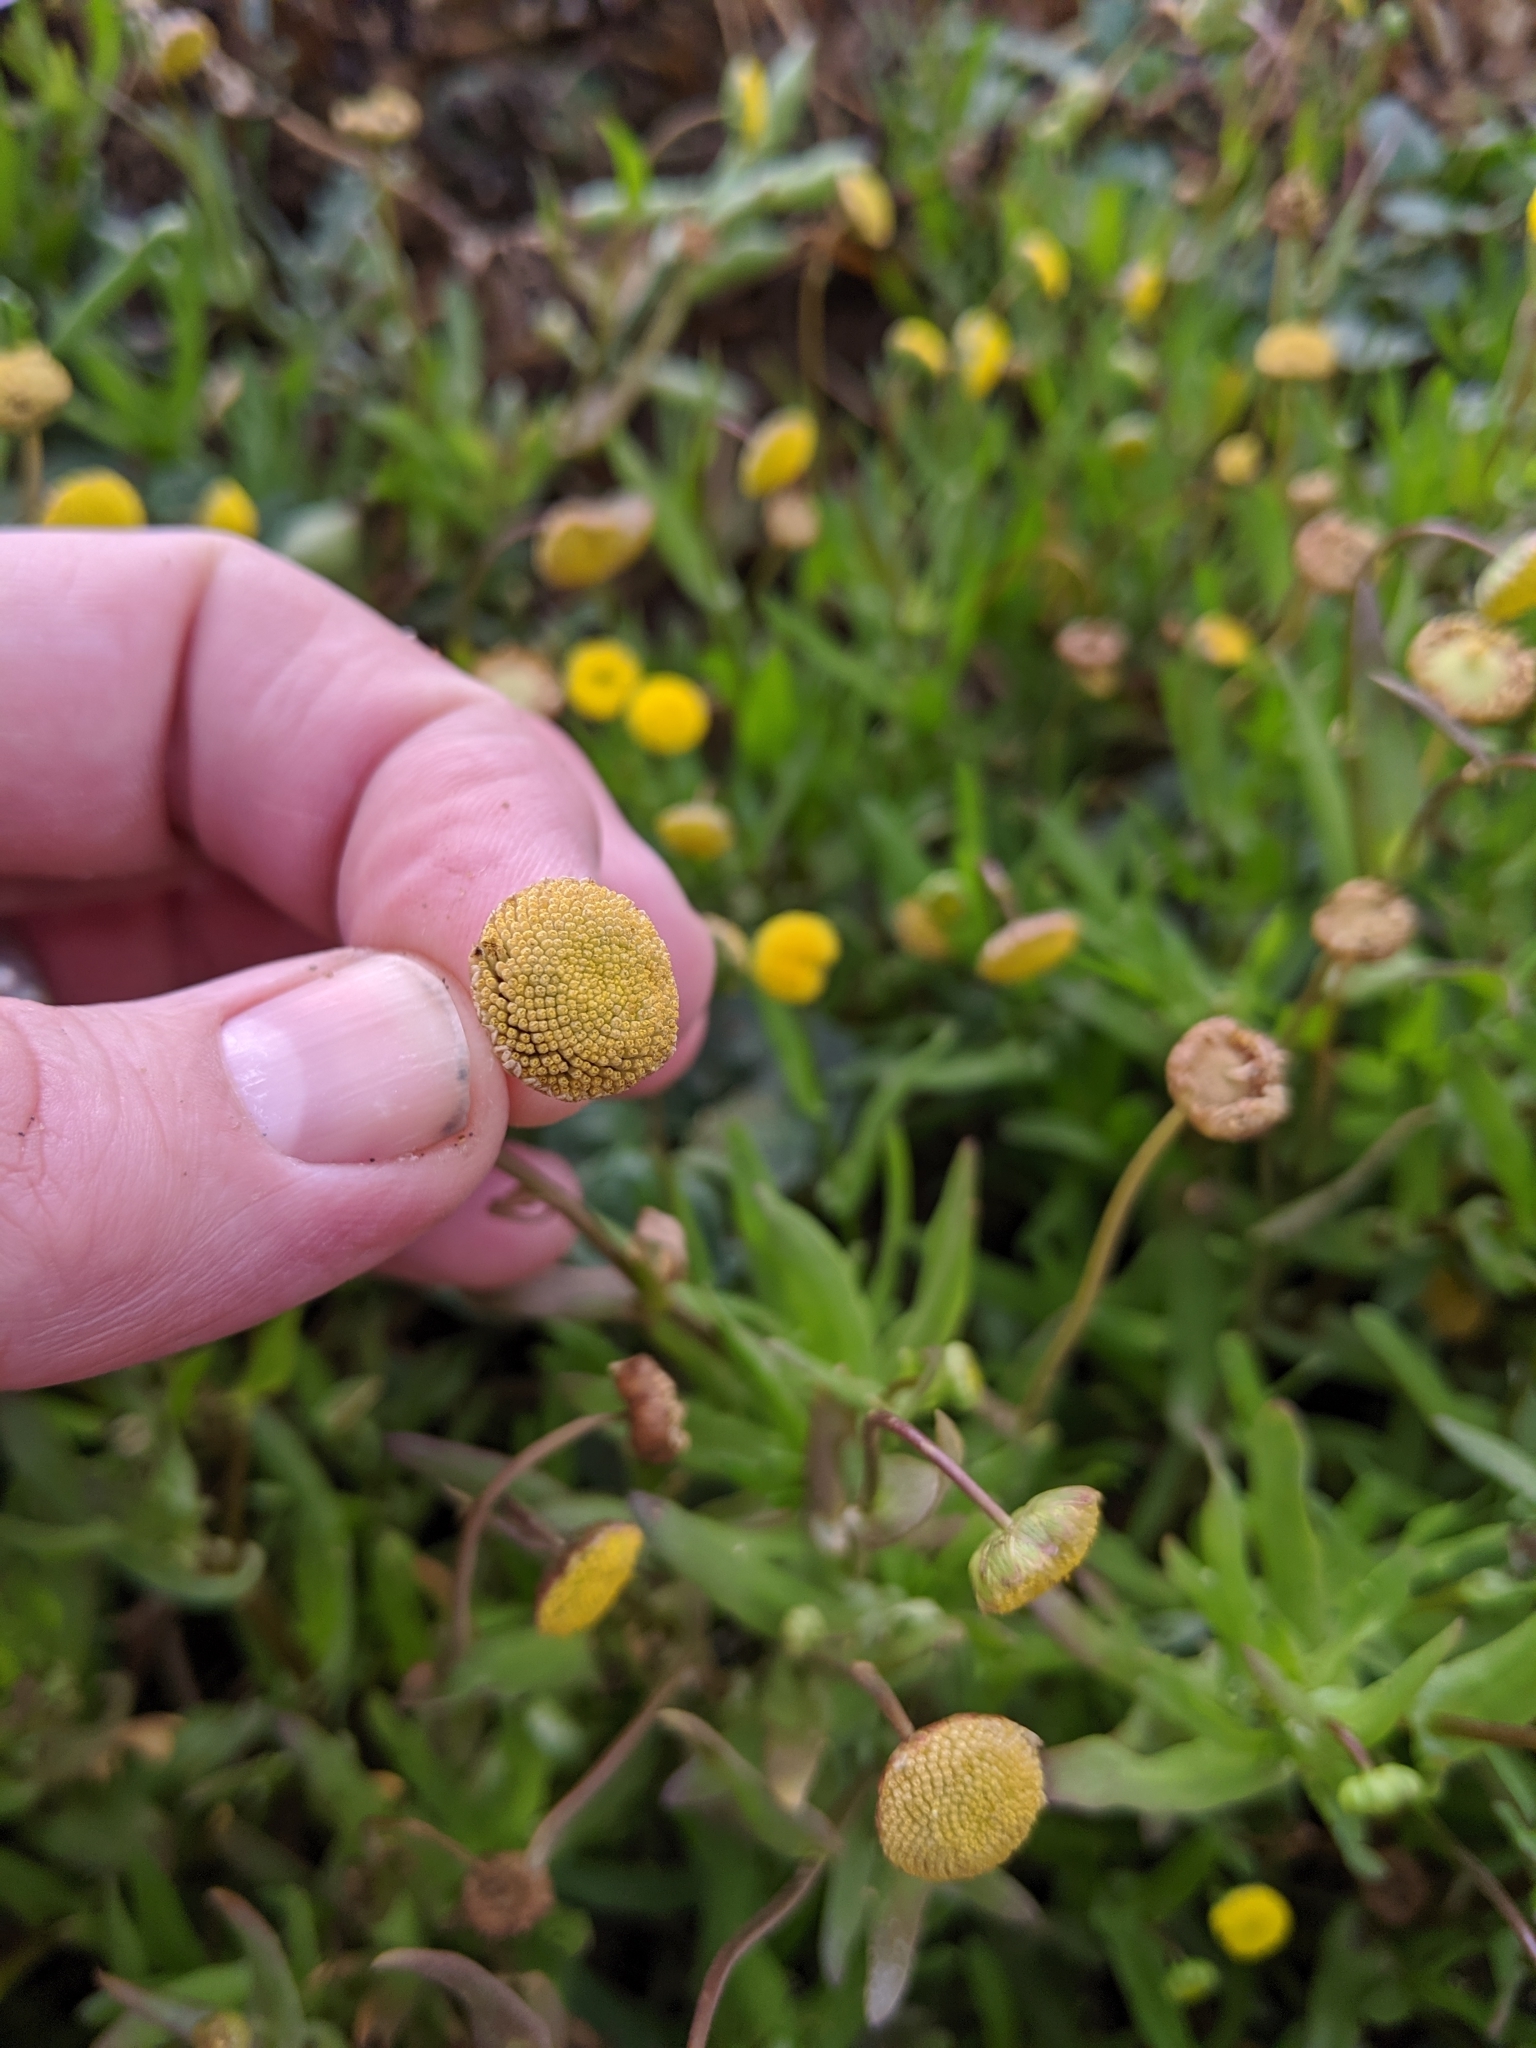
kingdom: Plantae
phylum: Tracheophyta
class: Magnoliopsida
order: Asterales
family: Asteraceae
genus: Cotula
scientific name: Cotula coronopifolia
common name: Buttonweed
